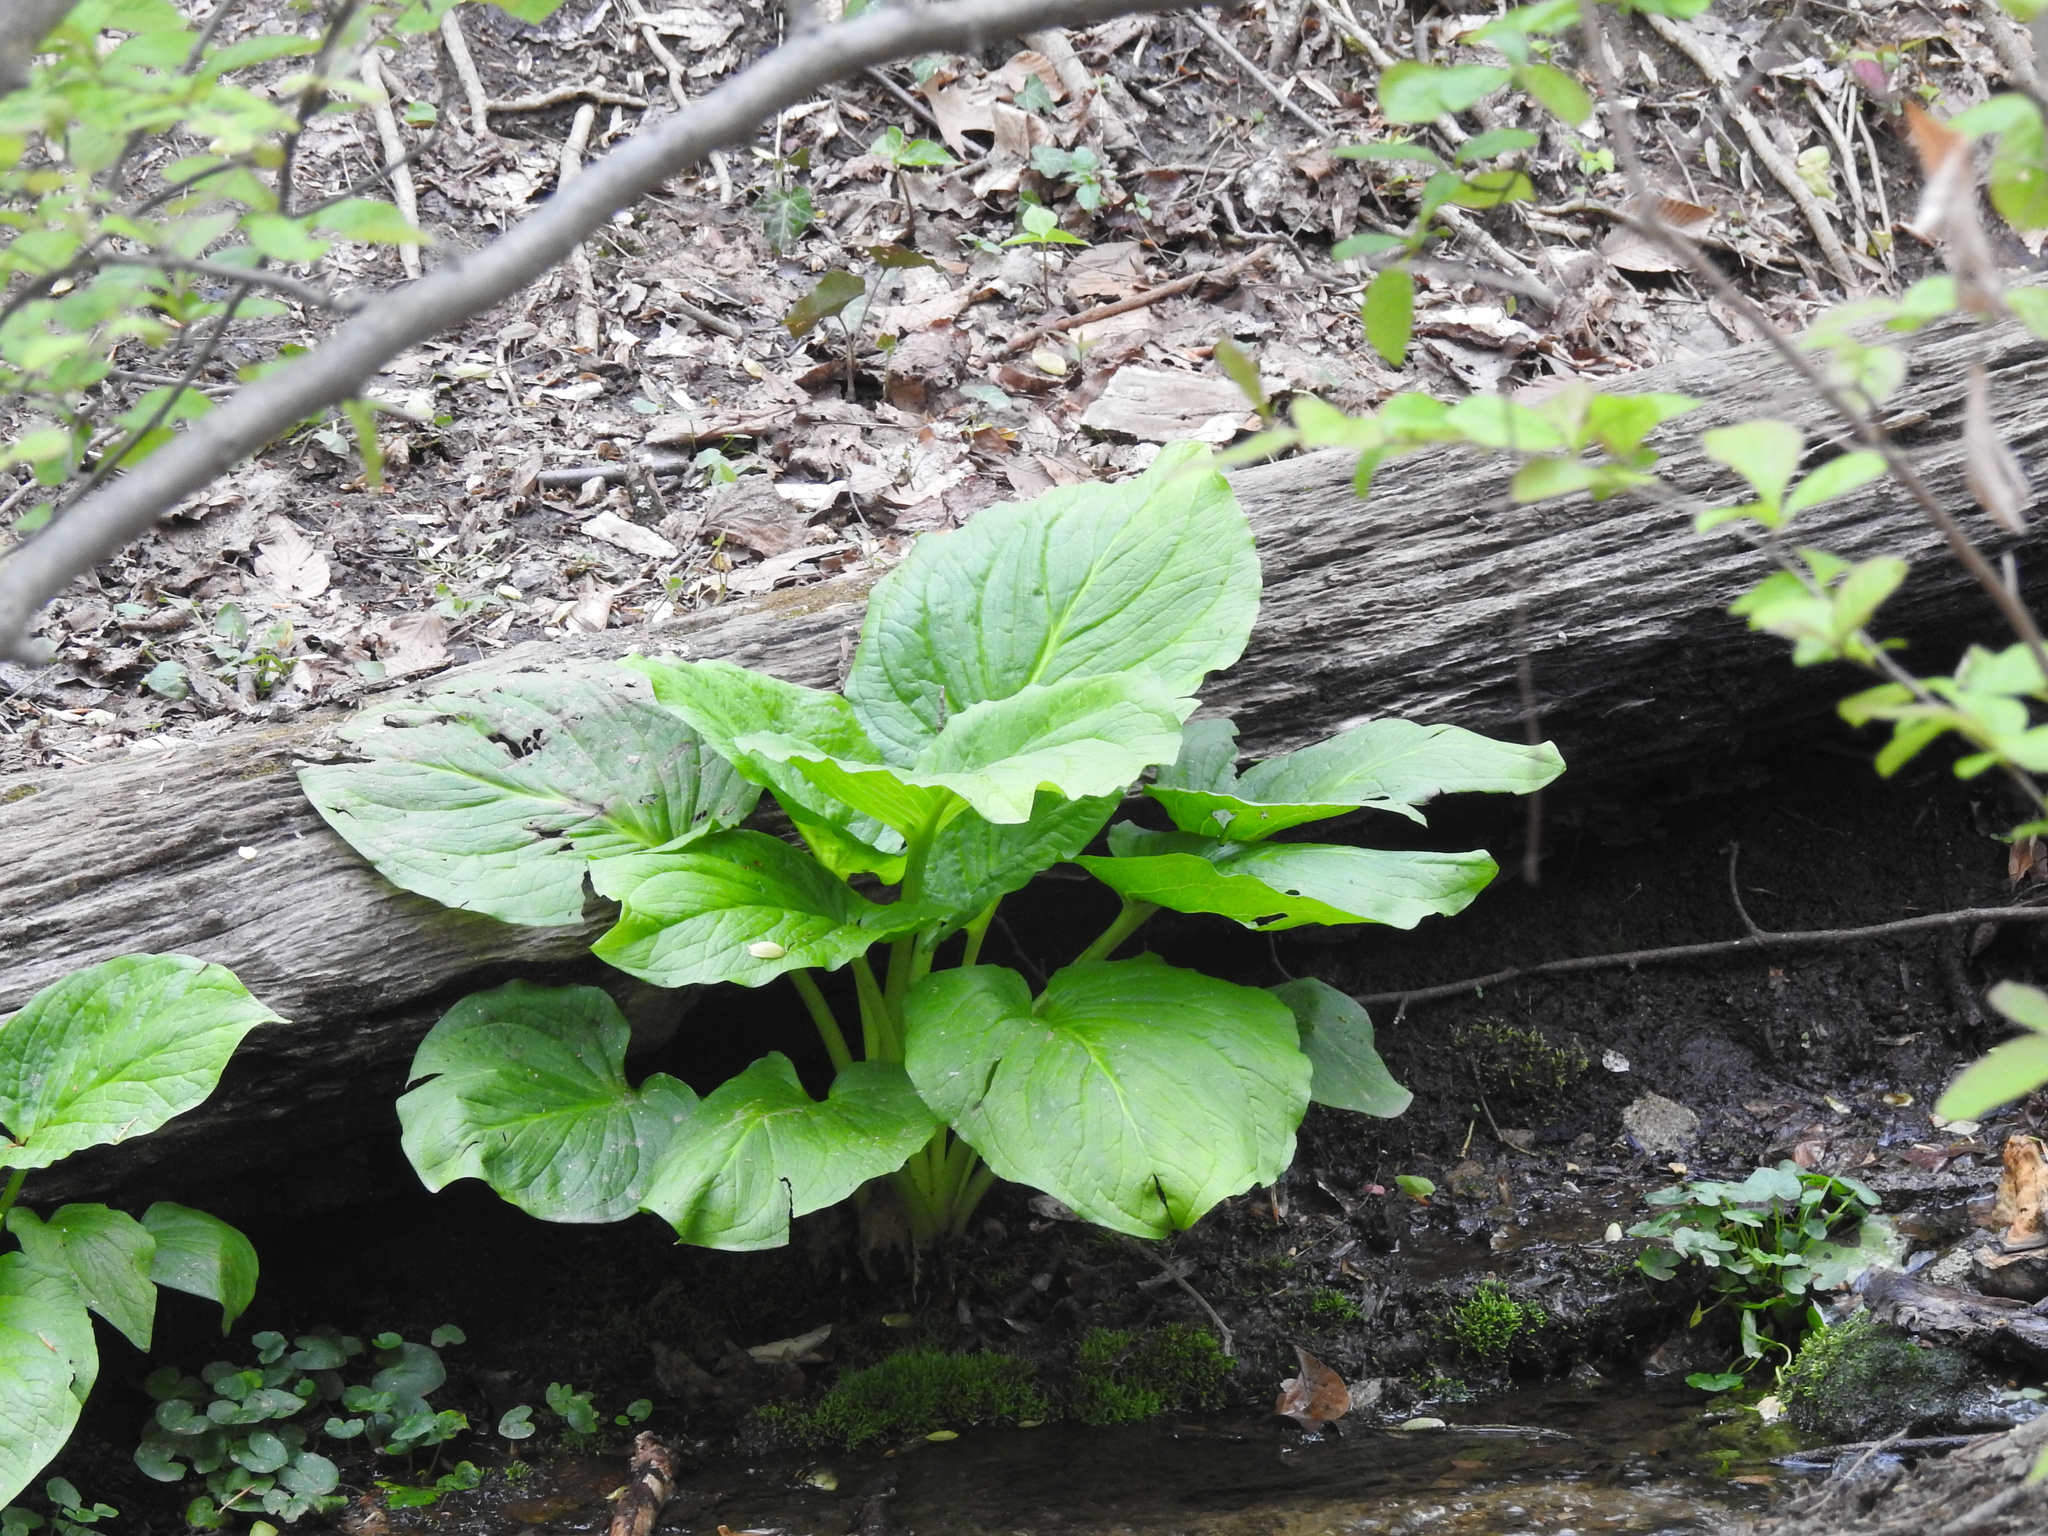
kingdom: Plantae
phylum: Tracheophyta
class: Liliopsida
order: Alismatales
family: Araceae
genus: Symplocarpus
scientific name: Symplocarpus foetidus
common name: Eastern skunk cabbage
